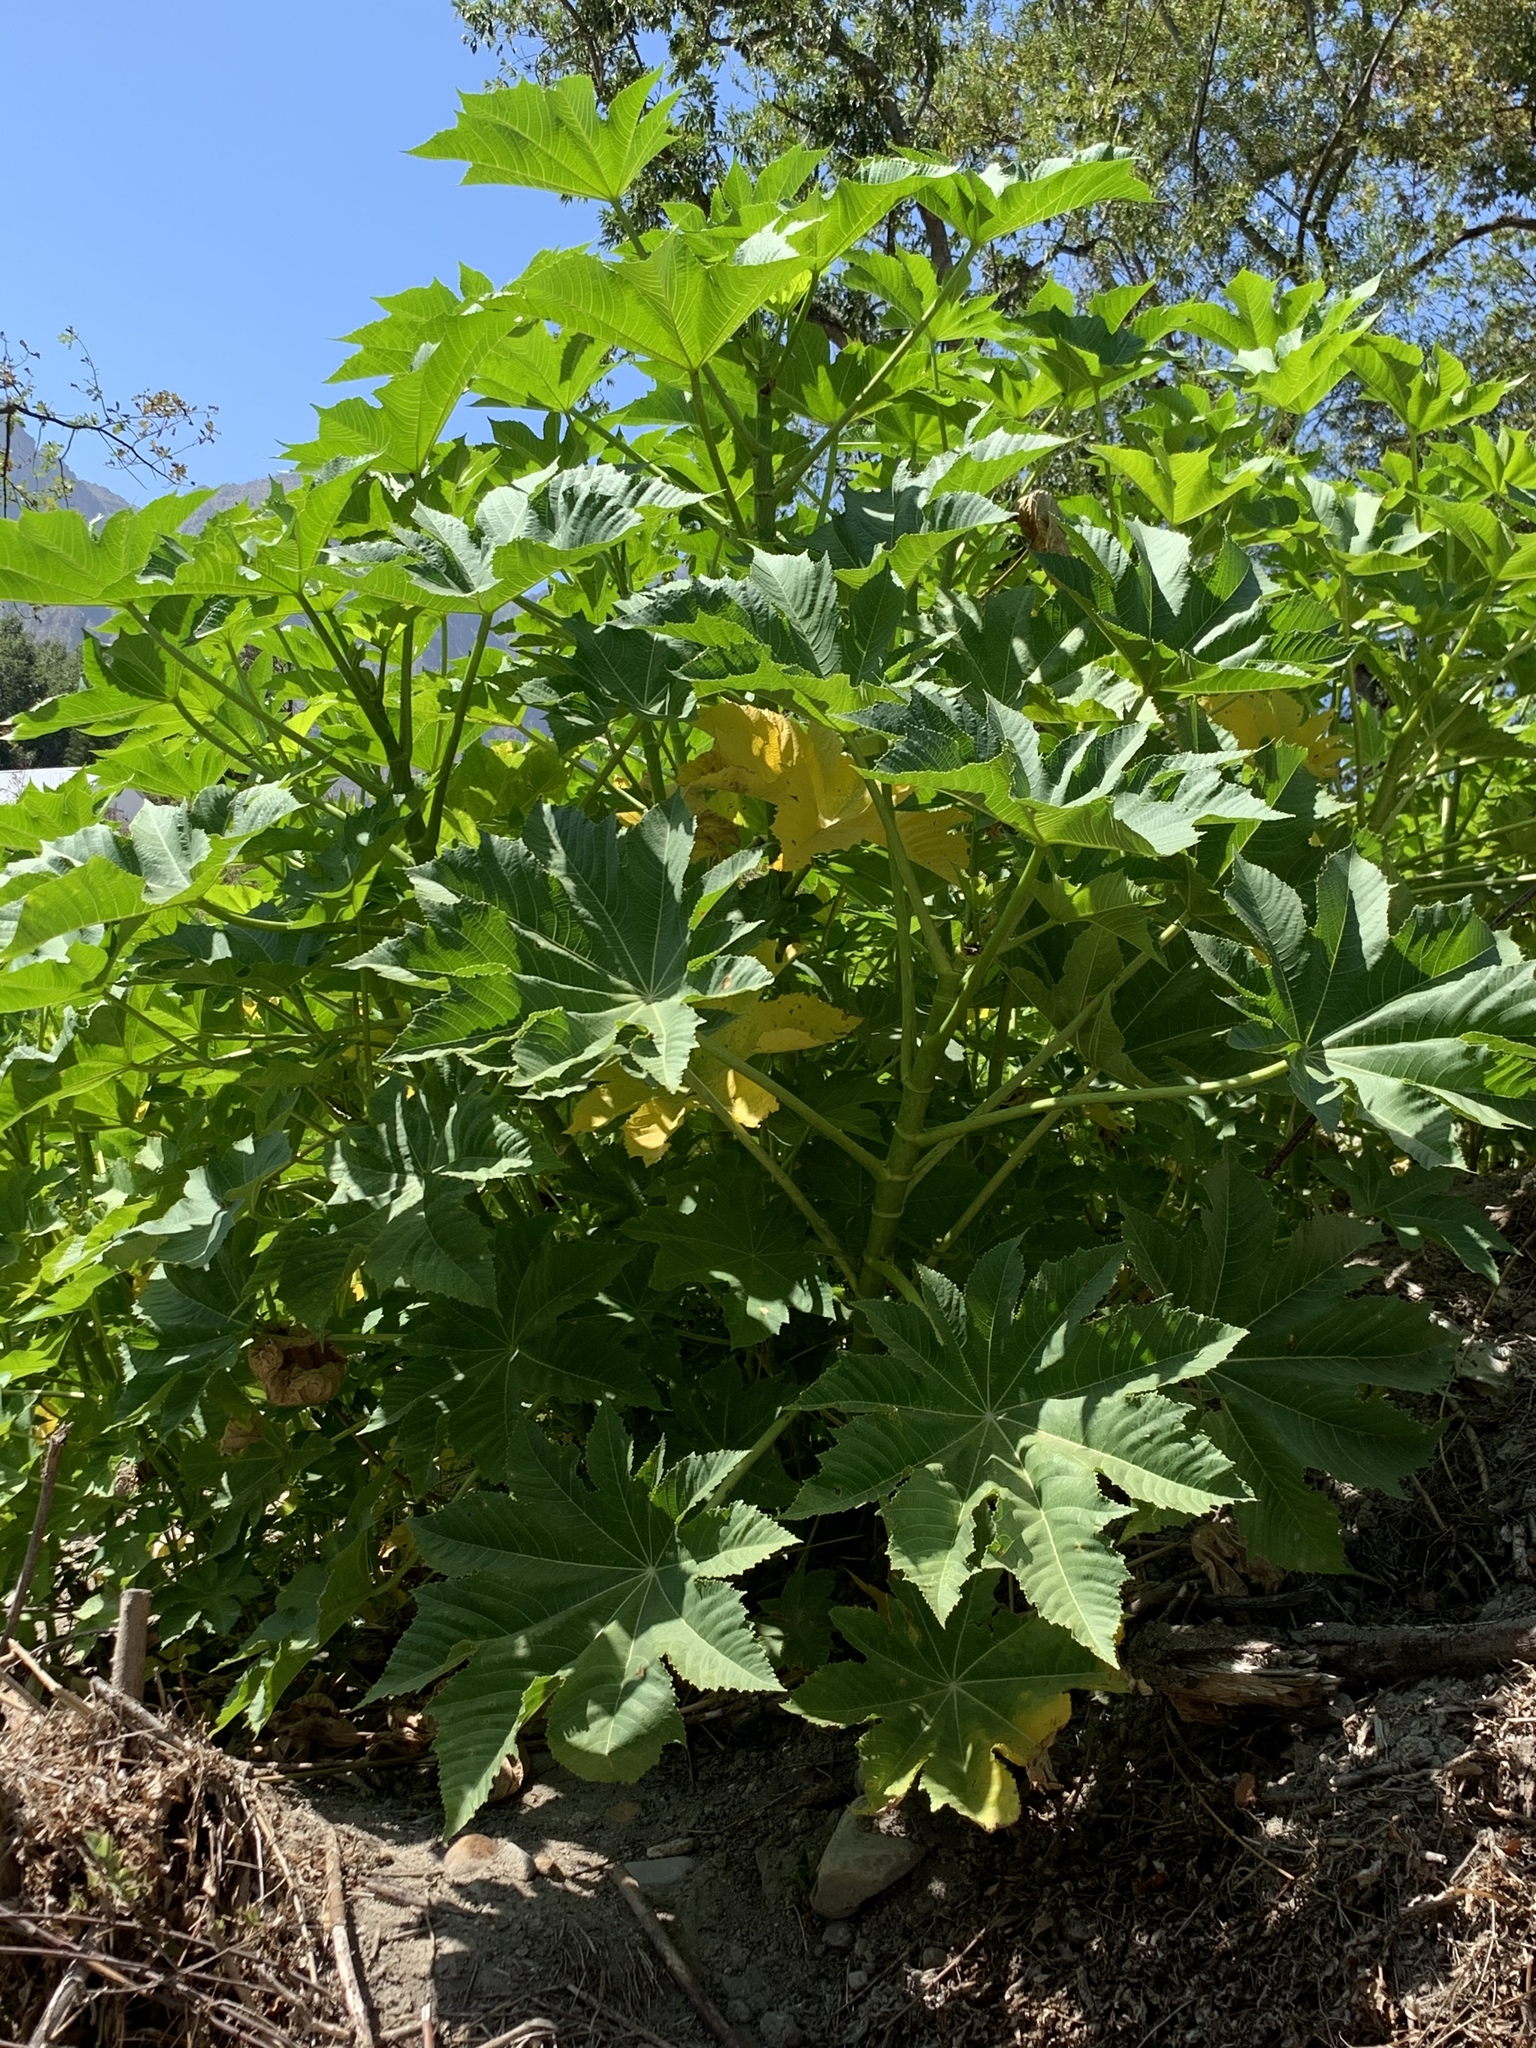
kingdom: Plantae
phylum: Tracheophyta
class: Magnoliopsida
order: Malpighiales
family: Euphorbiaceae
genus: Ricinus
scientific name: Ricinus communis
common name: Castor-oil-plant
